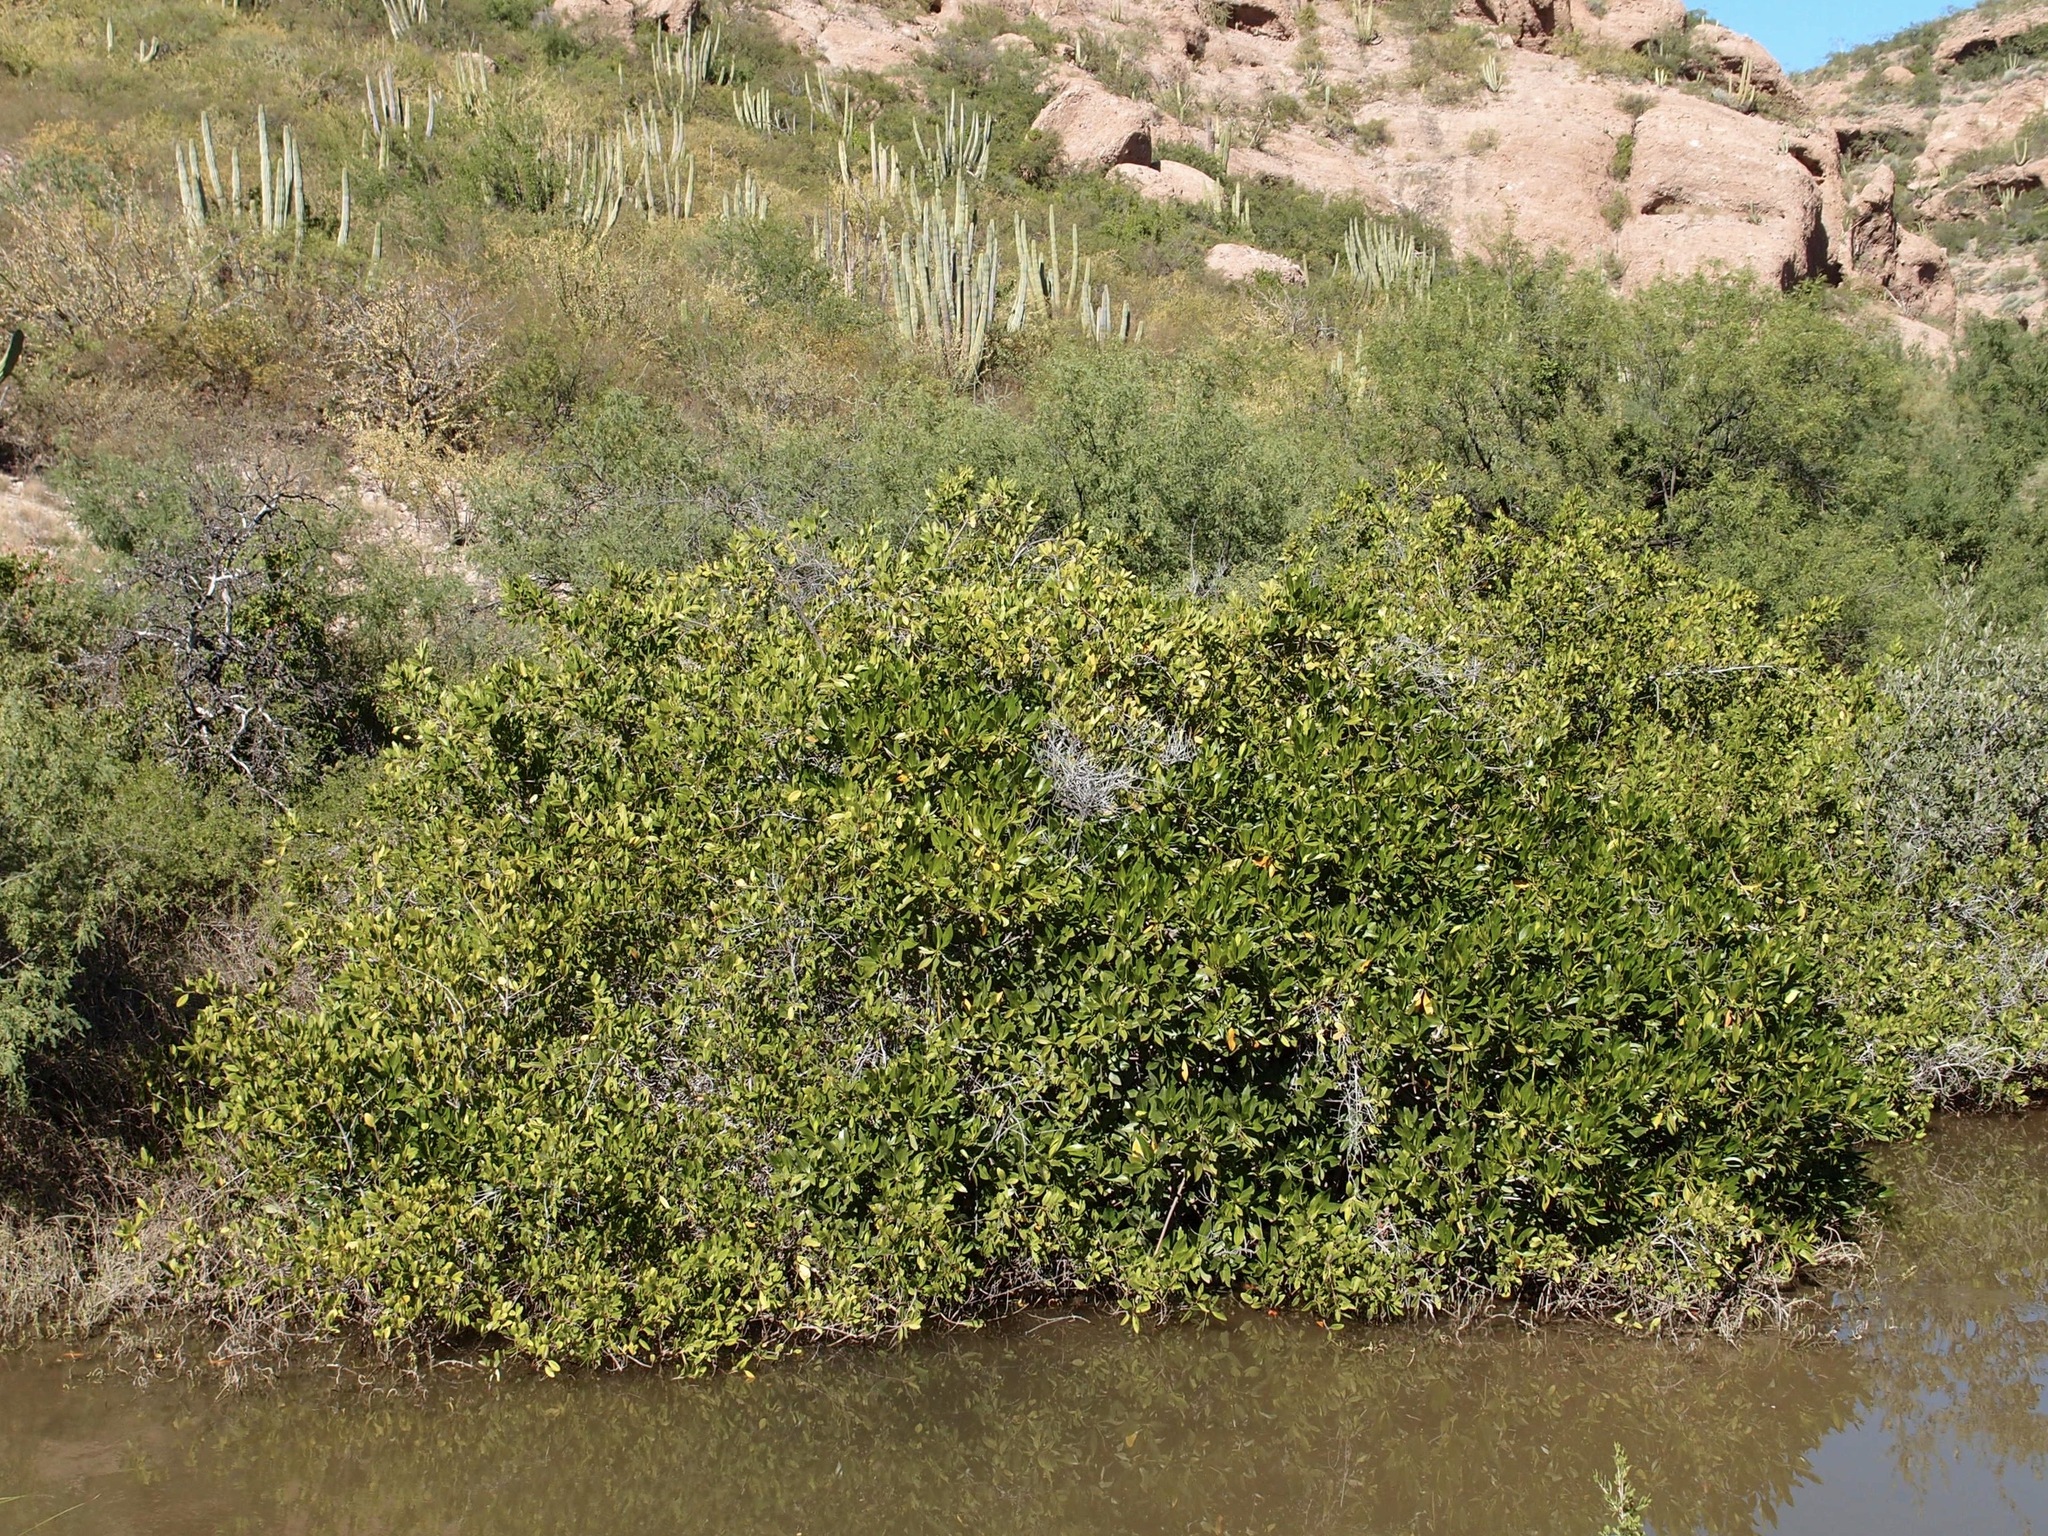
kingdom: Plantae
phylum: Tracheophyta
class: Magnoliopsida
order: Malpighiales
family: Rhizophoraceae
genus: Rhizophora
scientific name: Rhizophora mangle
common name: Red mangrove
